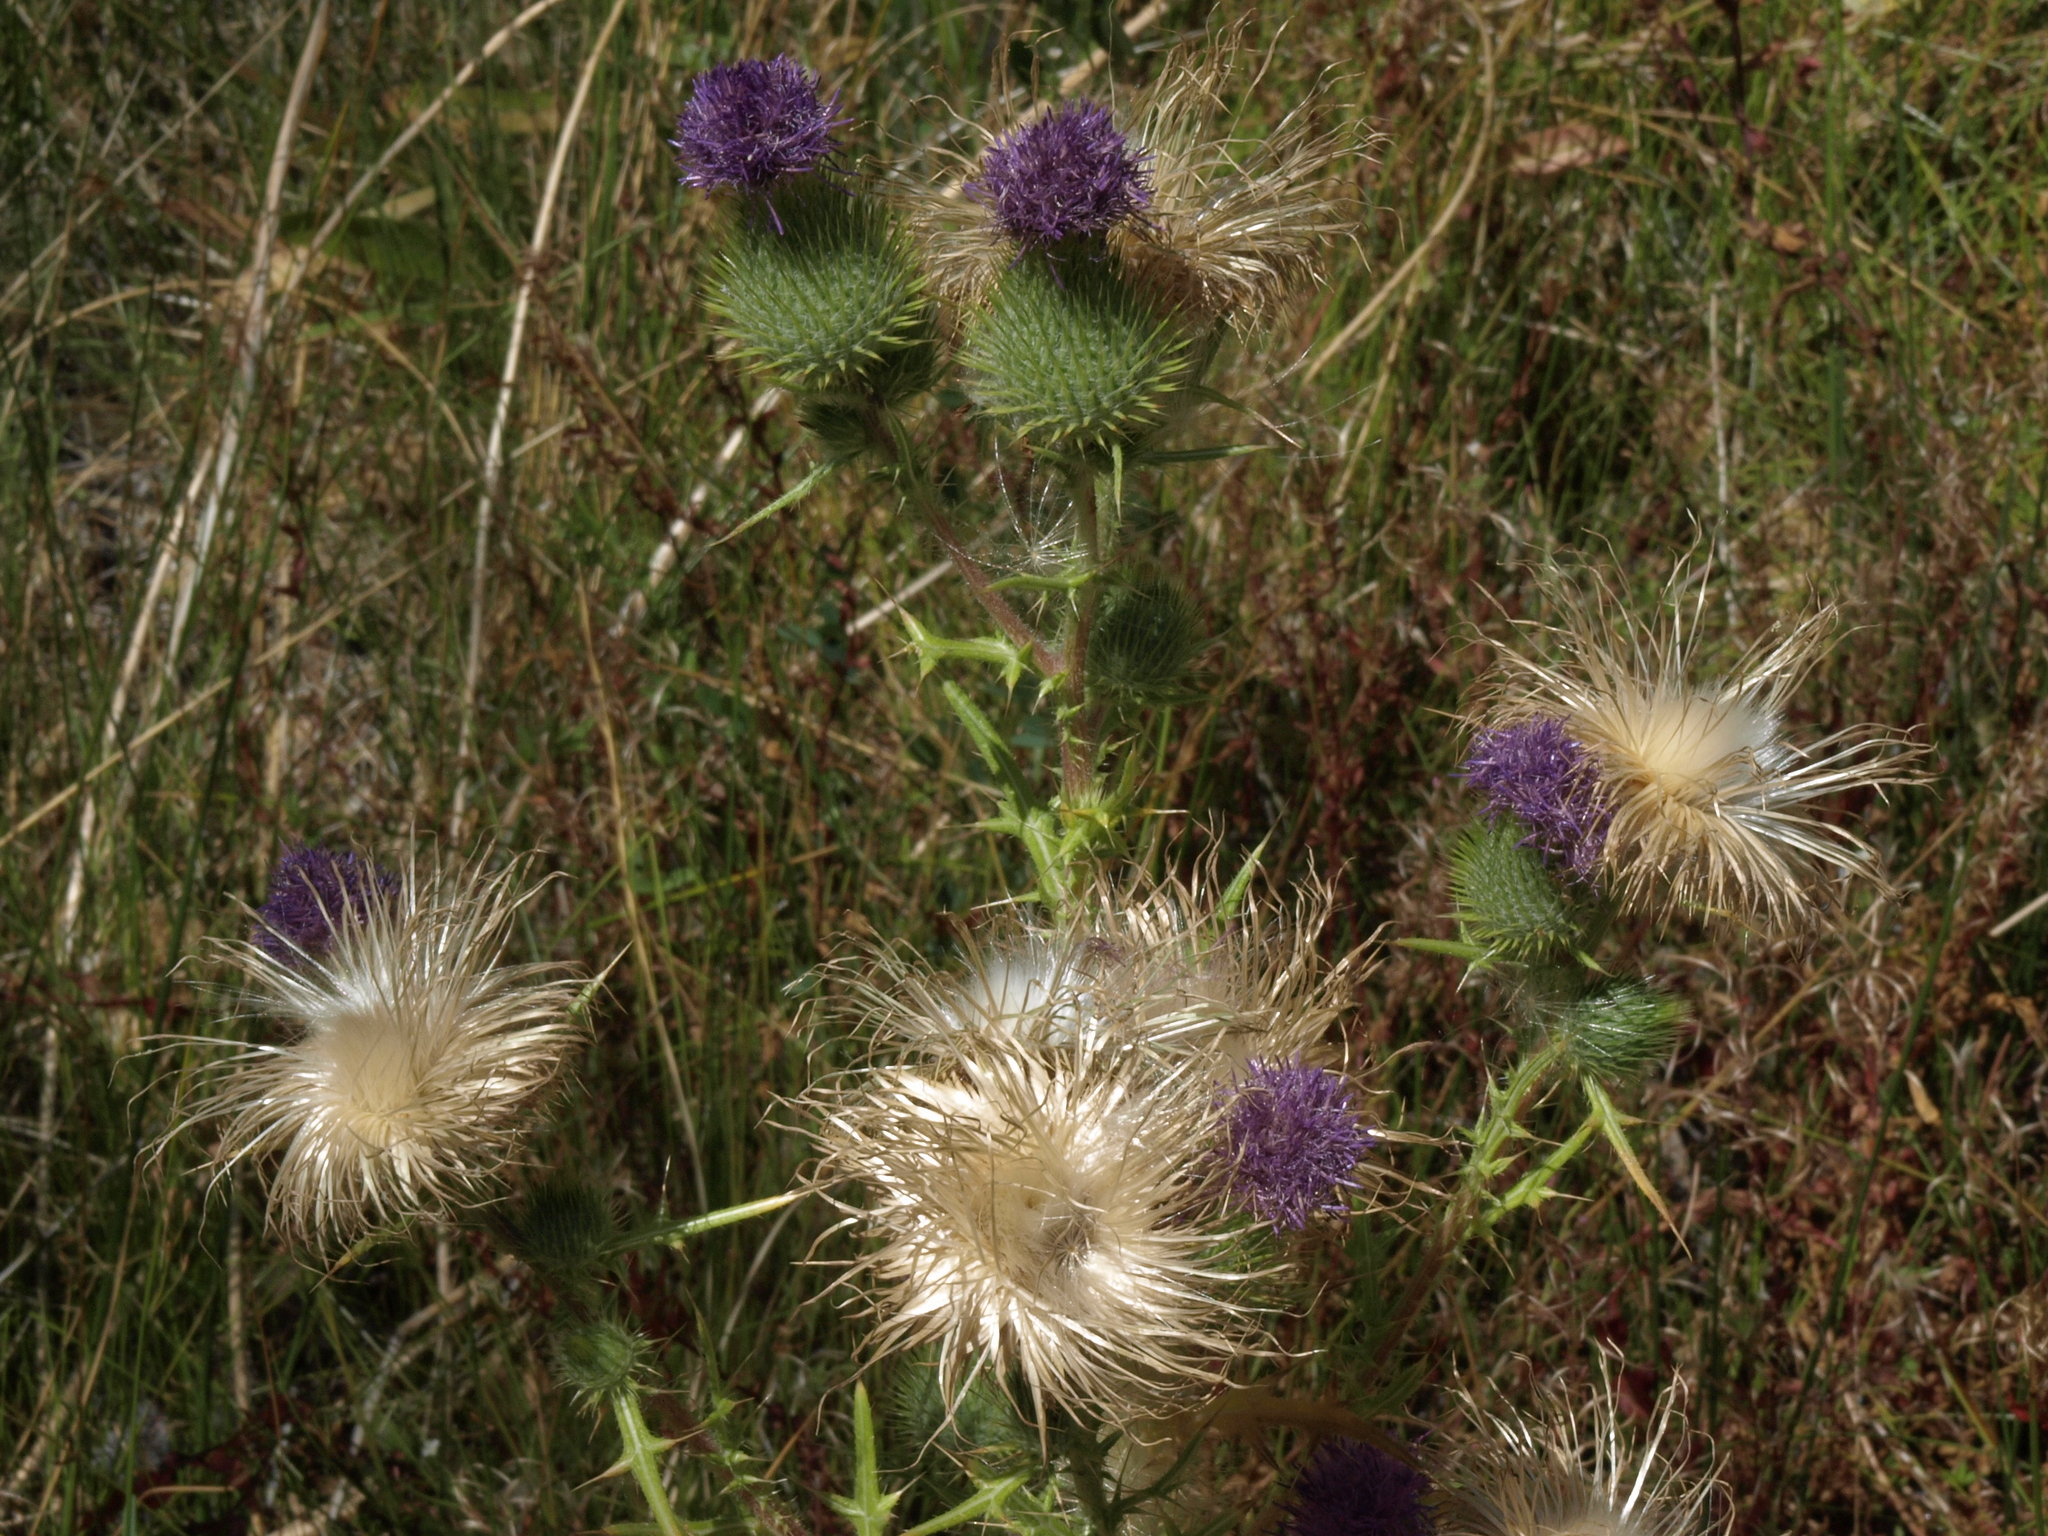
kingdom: Plantae
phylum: Tracheophyta
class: Magnoliopsida
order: Asterales
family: Asteraceae
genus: Cirsium
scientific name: Cirsium vulgare
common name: Bull thistle
